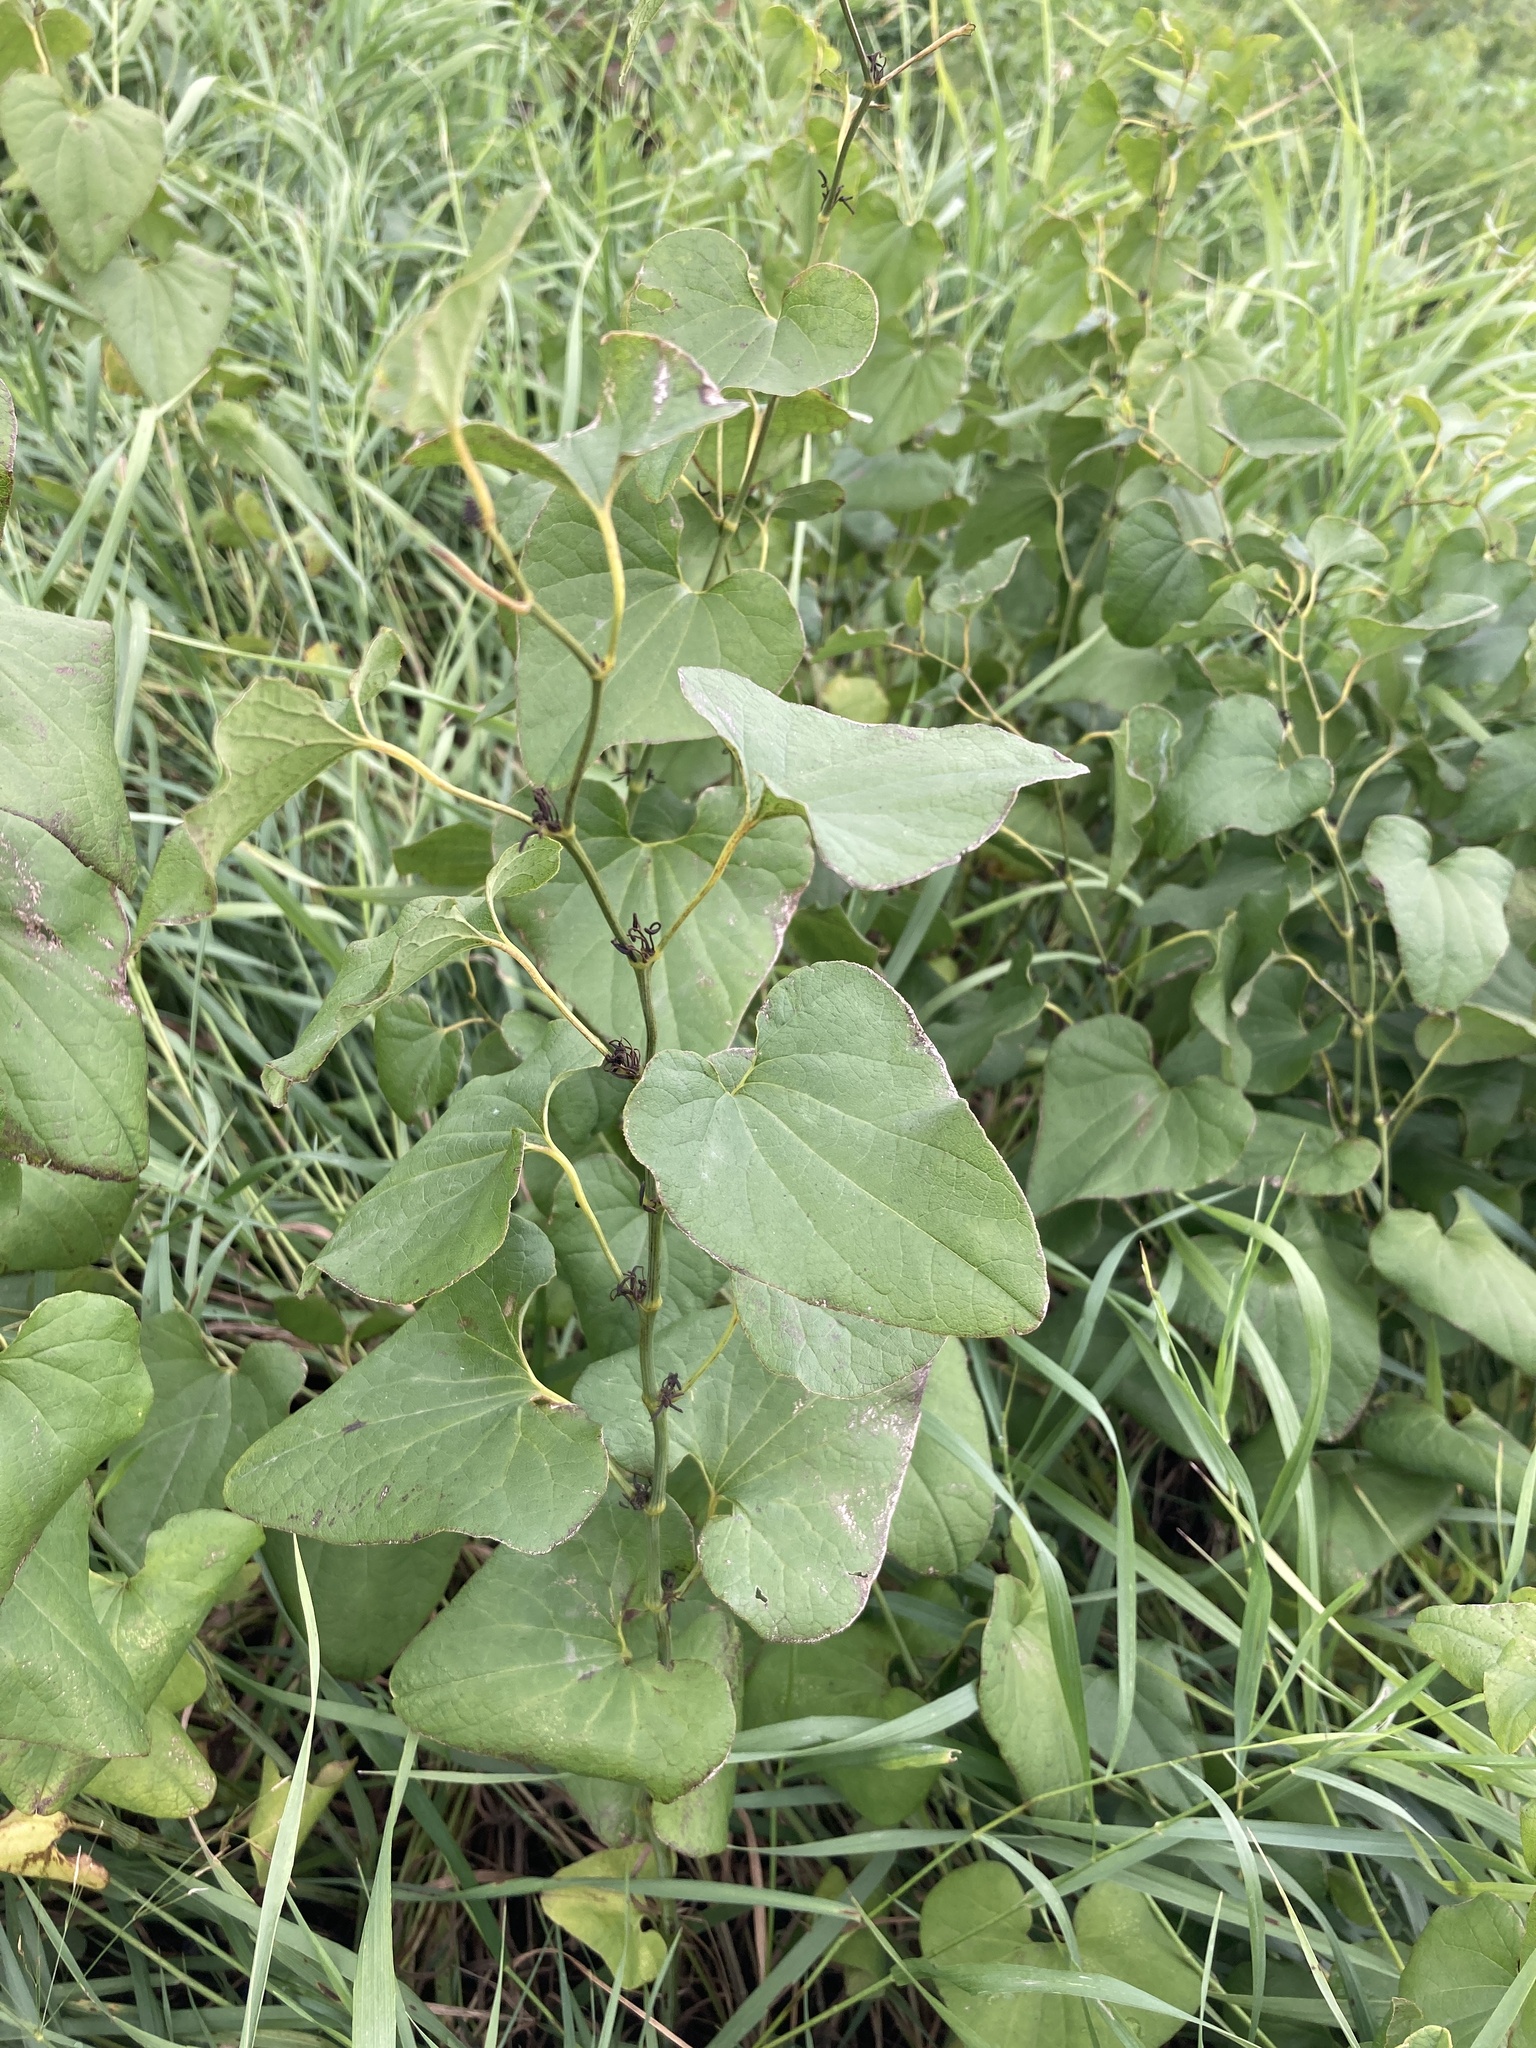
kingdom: Plantae
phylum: Tracheophyta
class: Magnoliopsida
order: Piperales
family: Aristolochiaceae
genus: Aristolochia
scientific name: Aristolochia clematitis
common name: Birthwort
